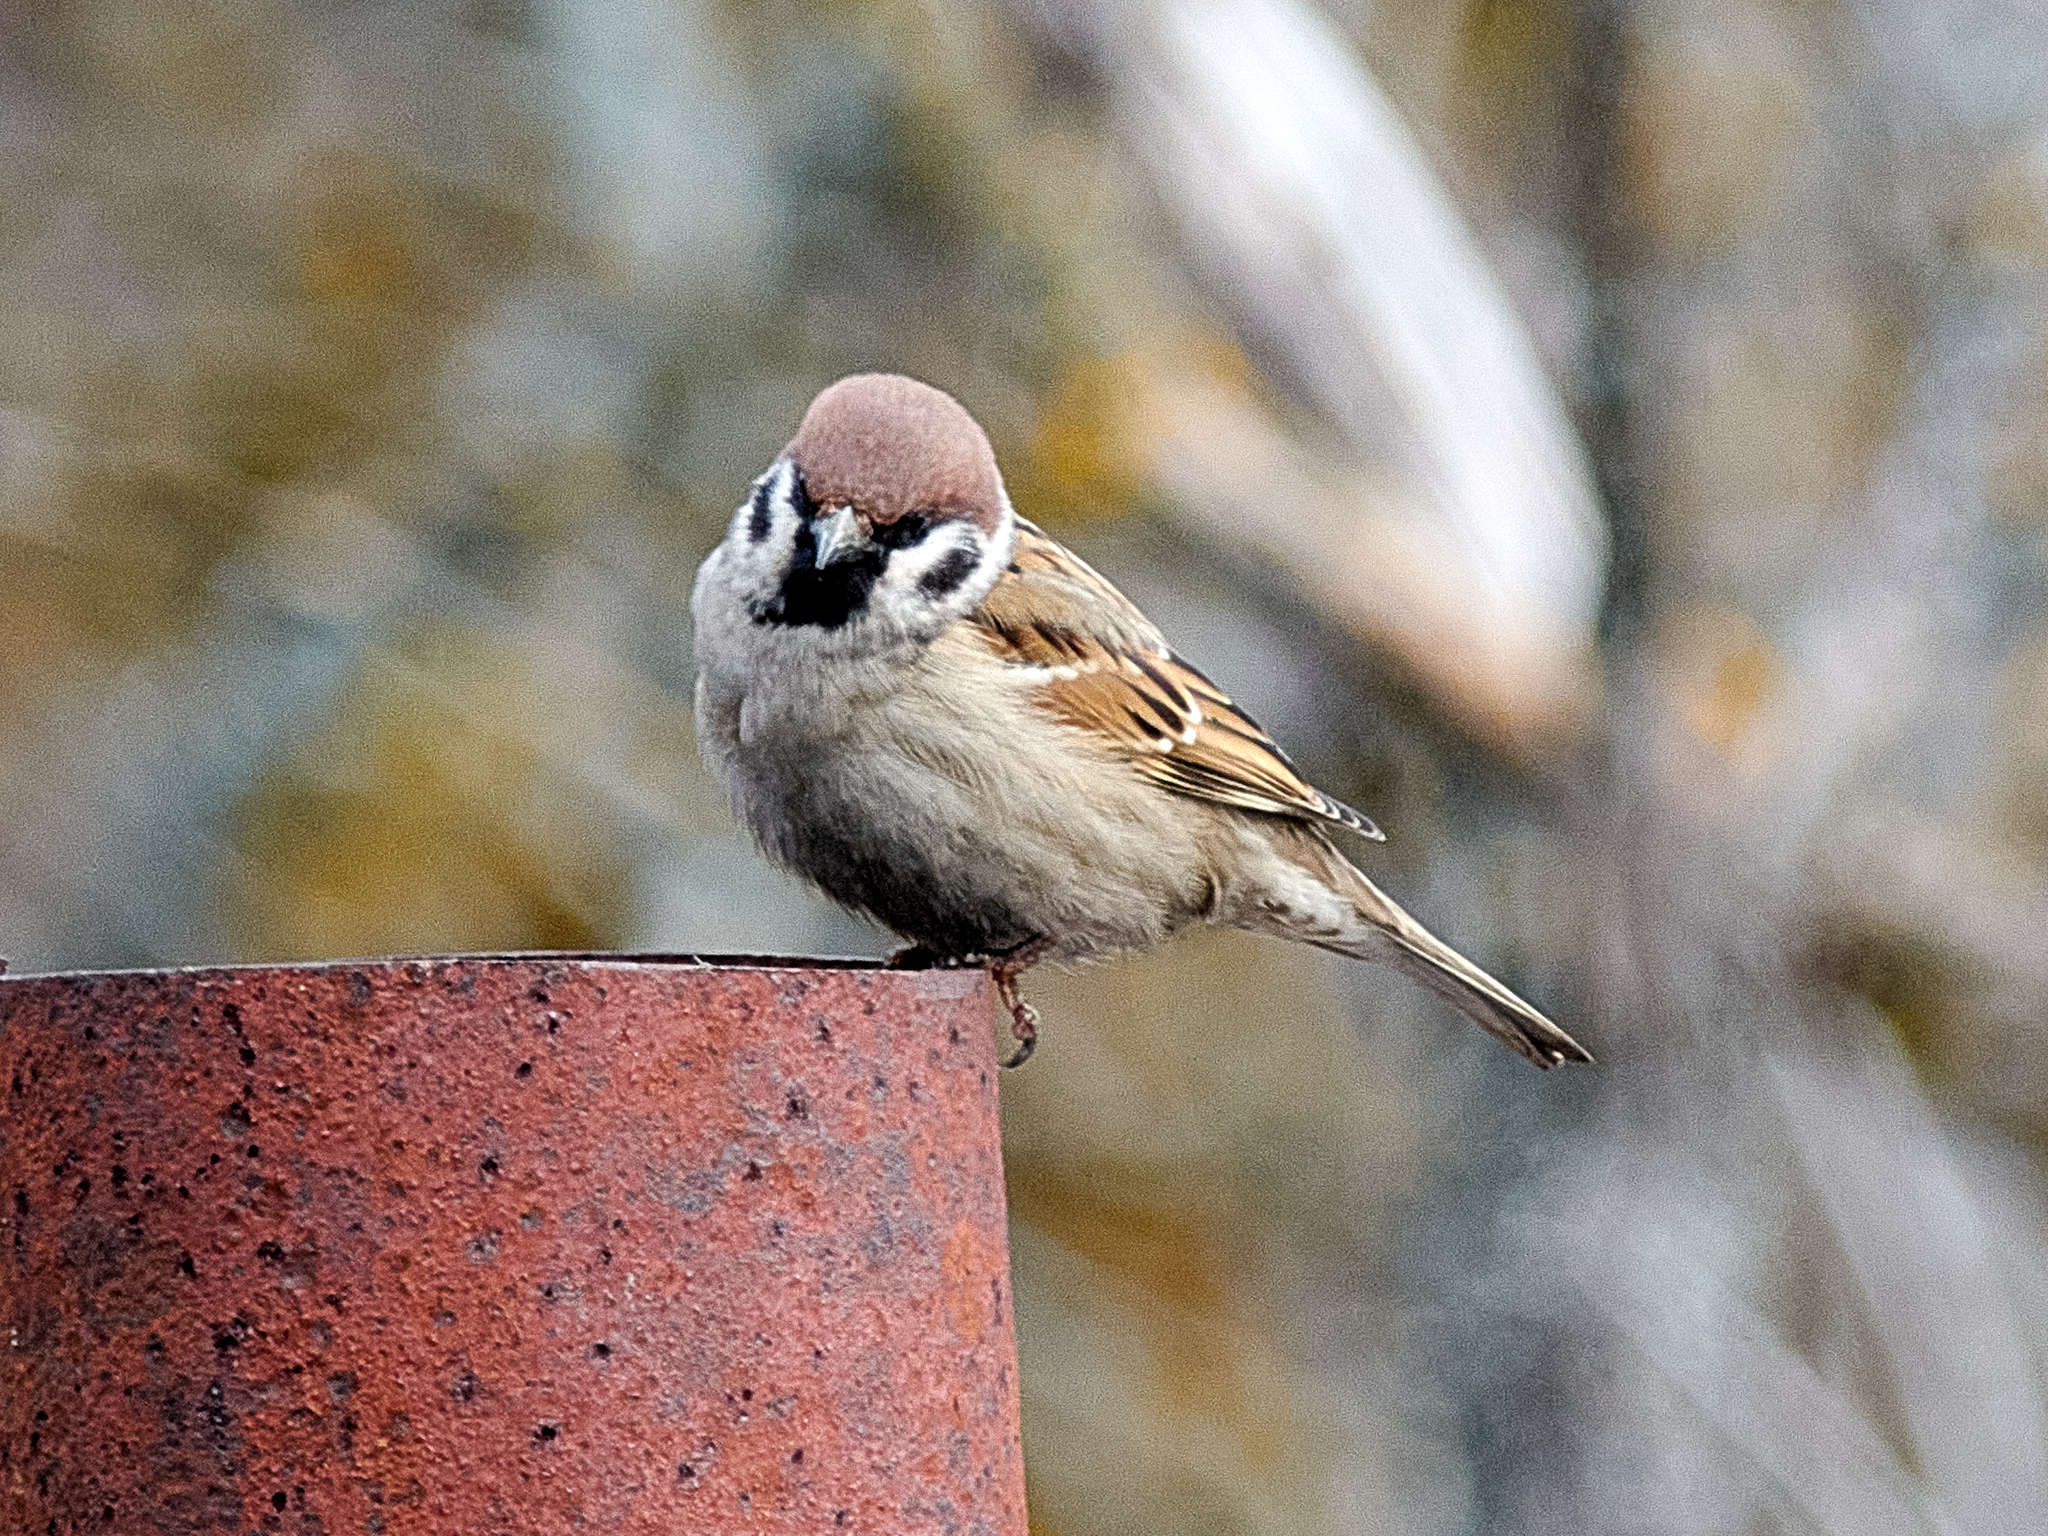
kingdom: Animalia
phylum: Chordata
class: Aves
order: Passeriformes
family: Passeridae
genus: Passer
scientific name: Passer montanus
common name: Eurasian tree sparrow
